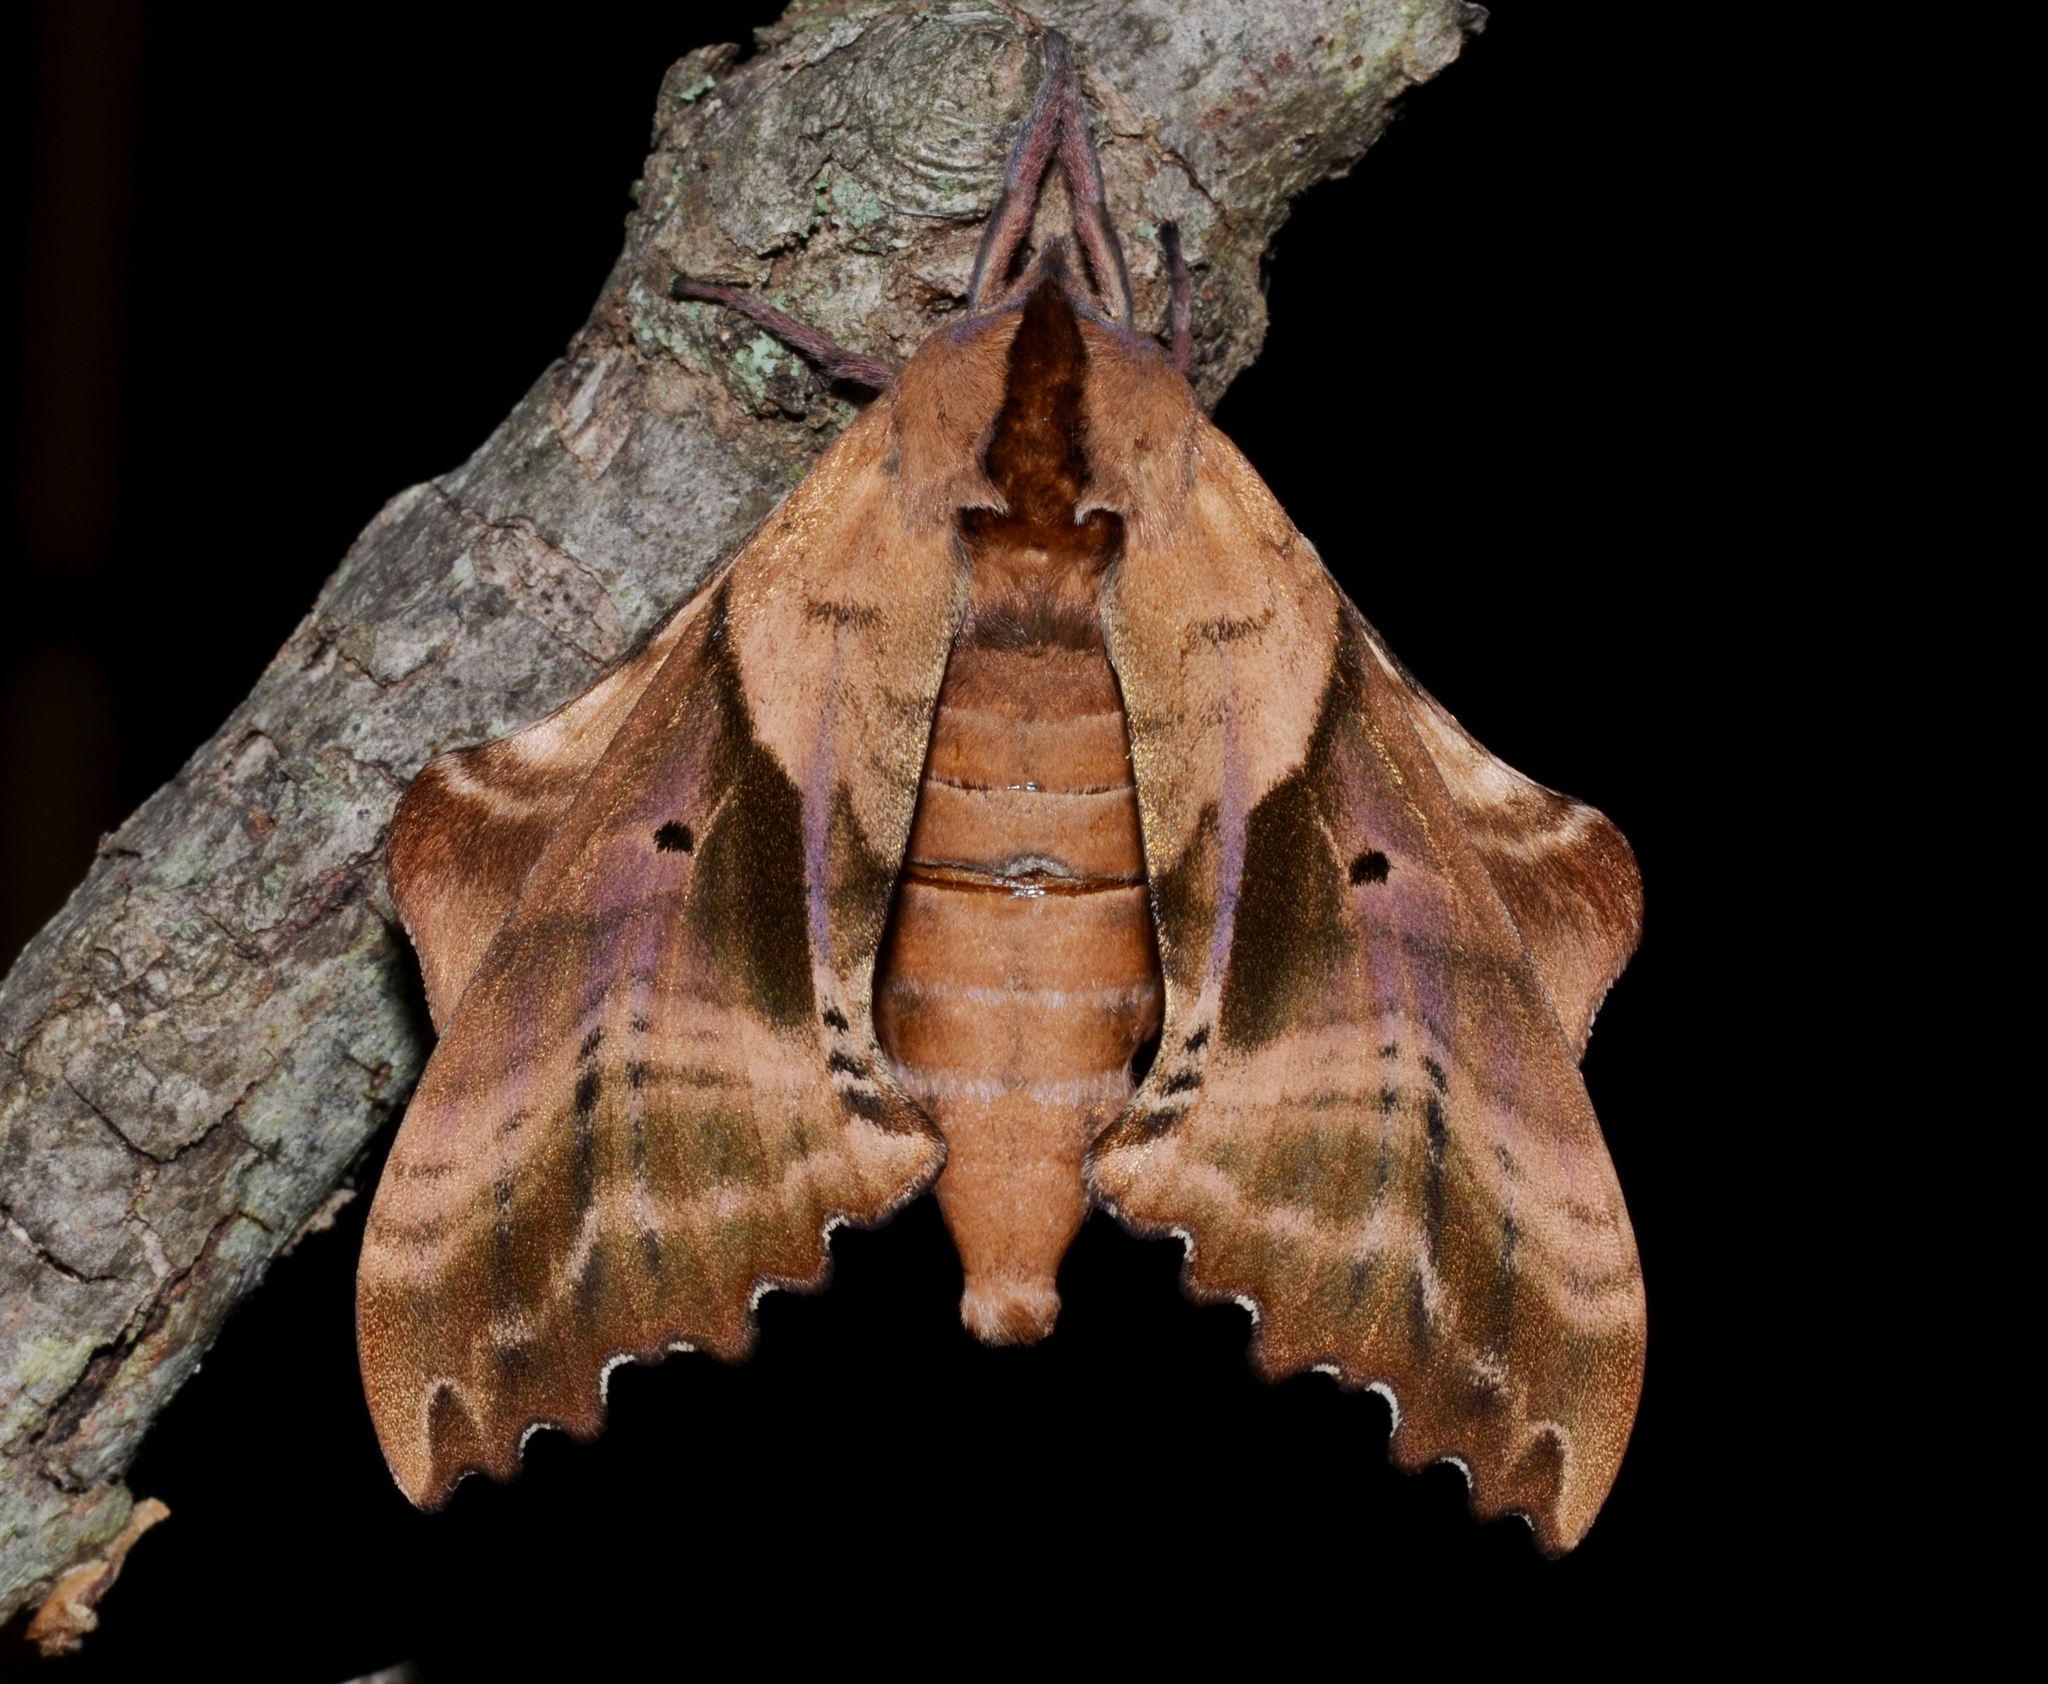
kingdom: Animalia
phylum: Arthropoda
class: Insecta
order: Lepidoptera
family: Sphingidae
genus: Paonias
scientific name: Paonias excaecata
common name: Blind-eyed sphinx
